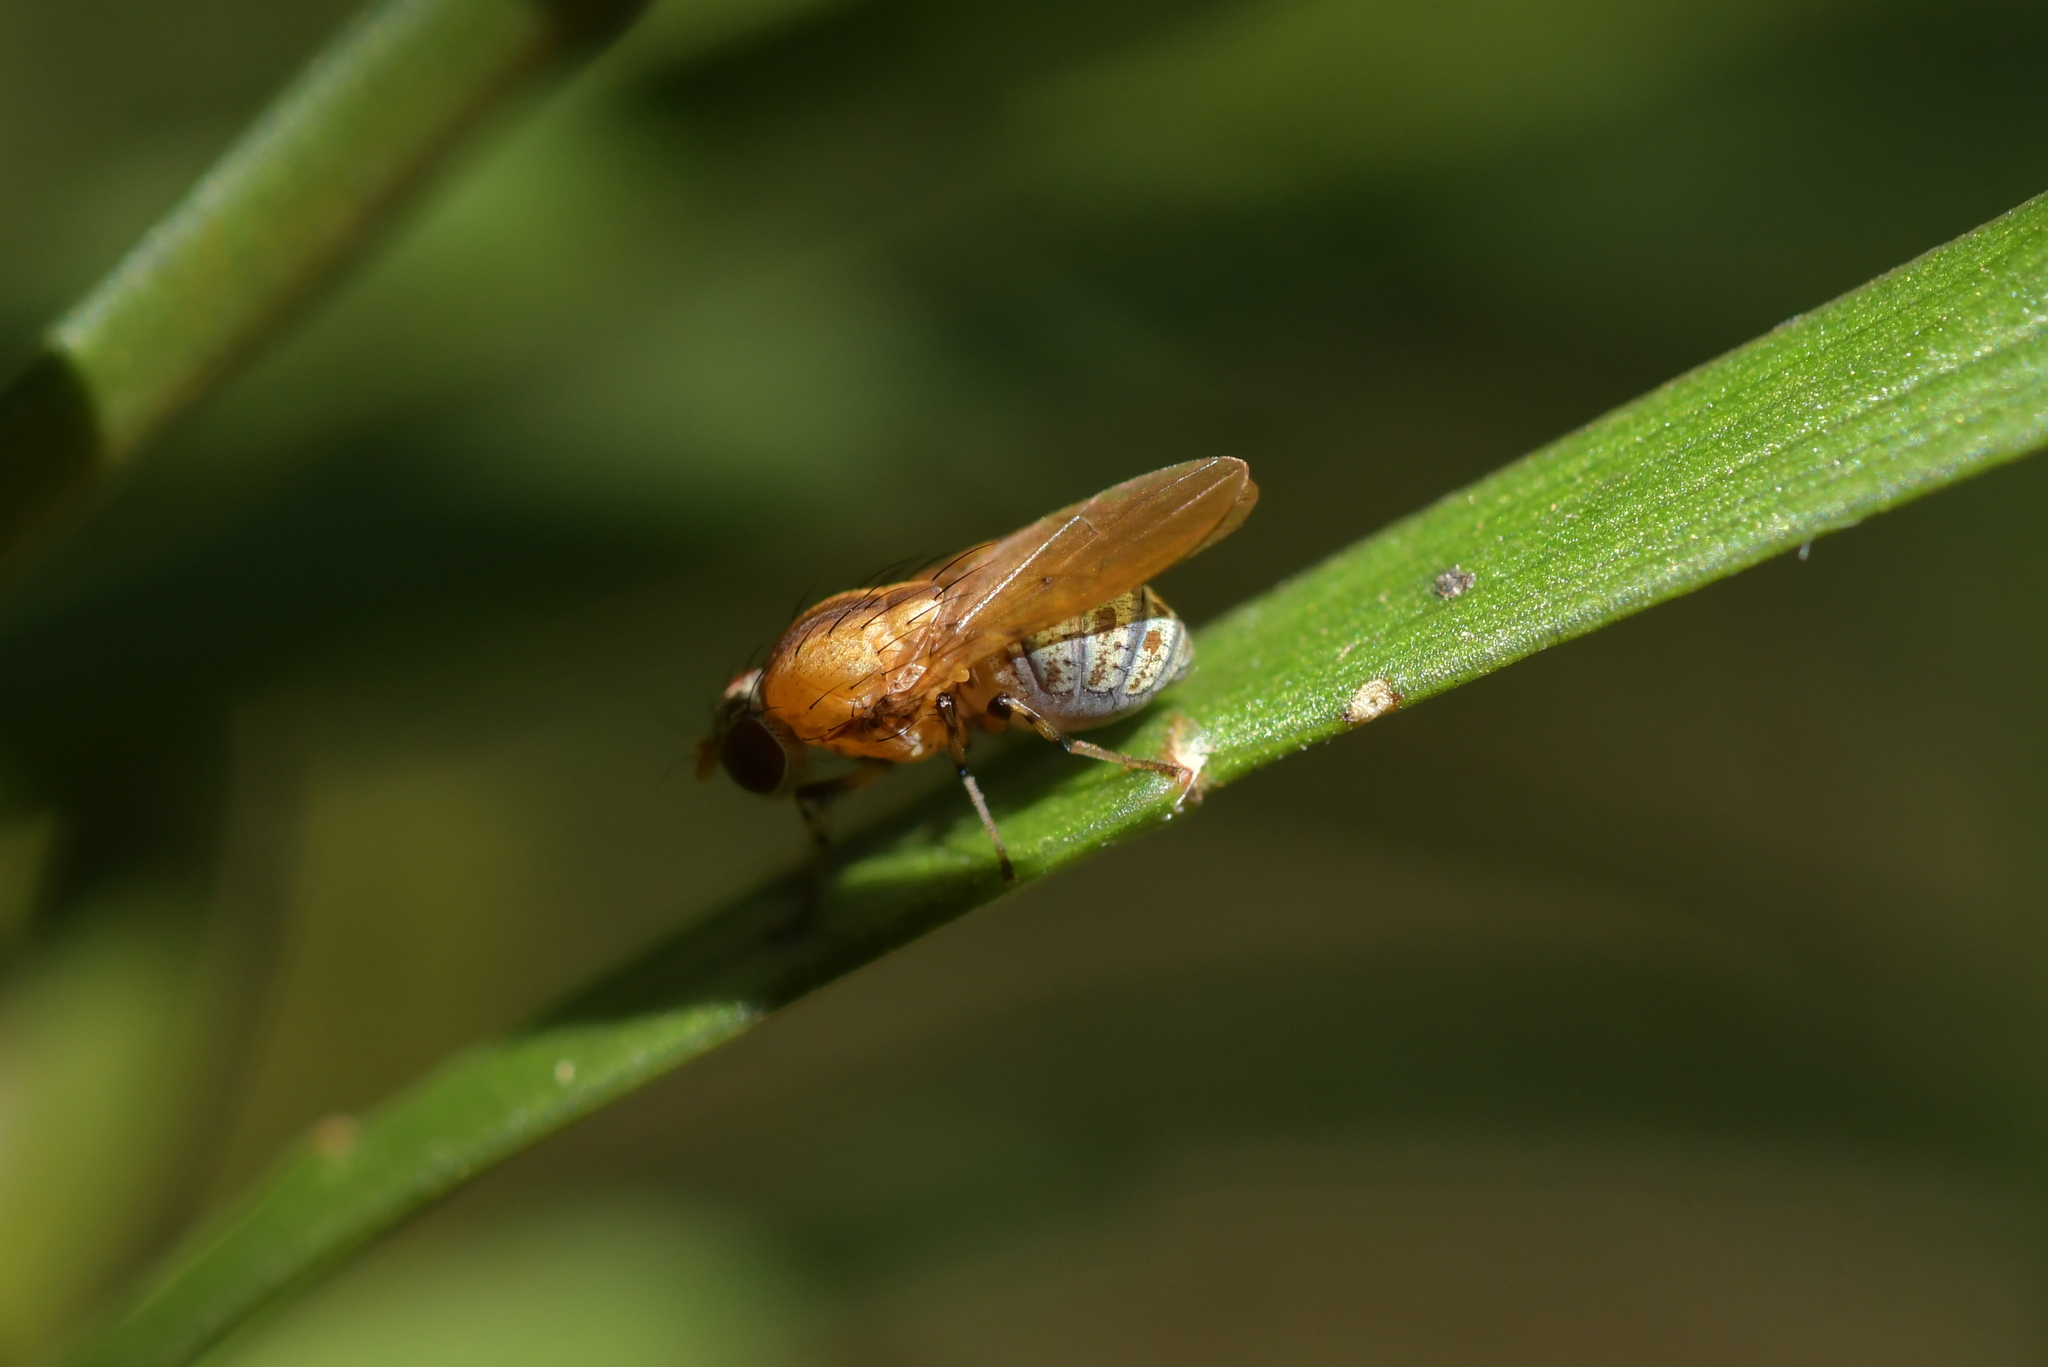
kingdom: Animalia
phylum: Arthropoda
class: Insecta
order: Diptera
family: Lauxaniidae
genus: Sapromyza
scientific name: Sapromyza neozelandica
